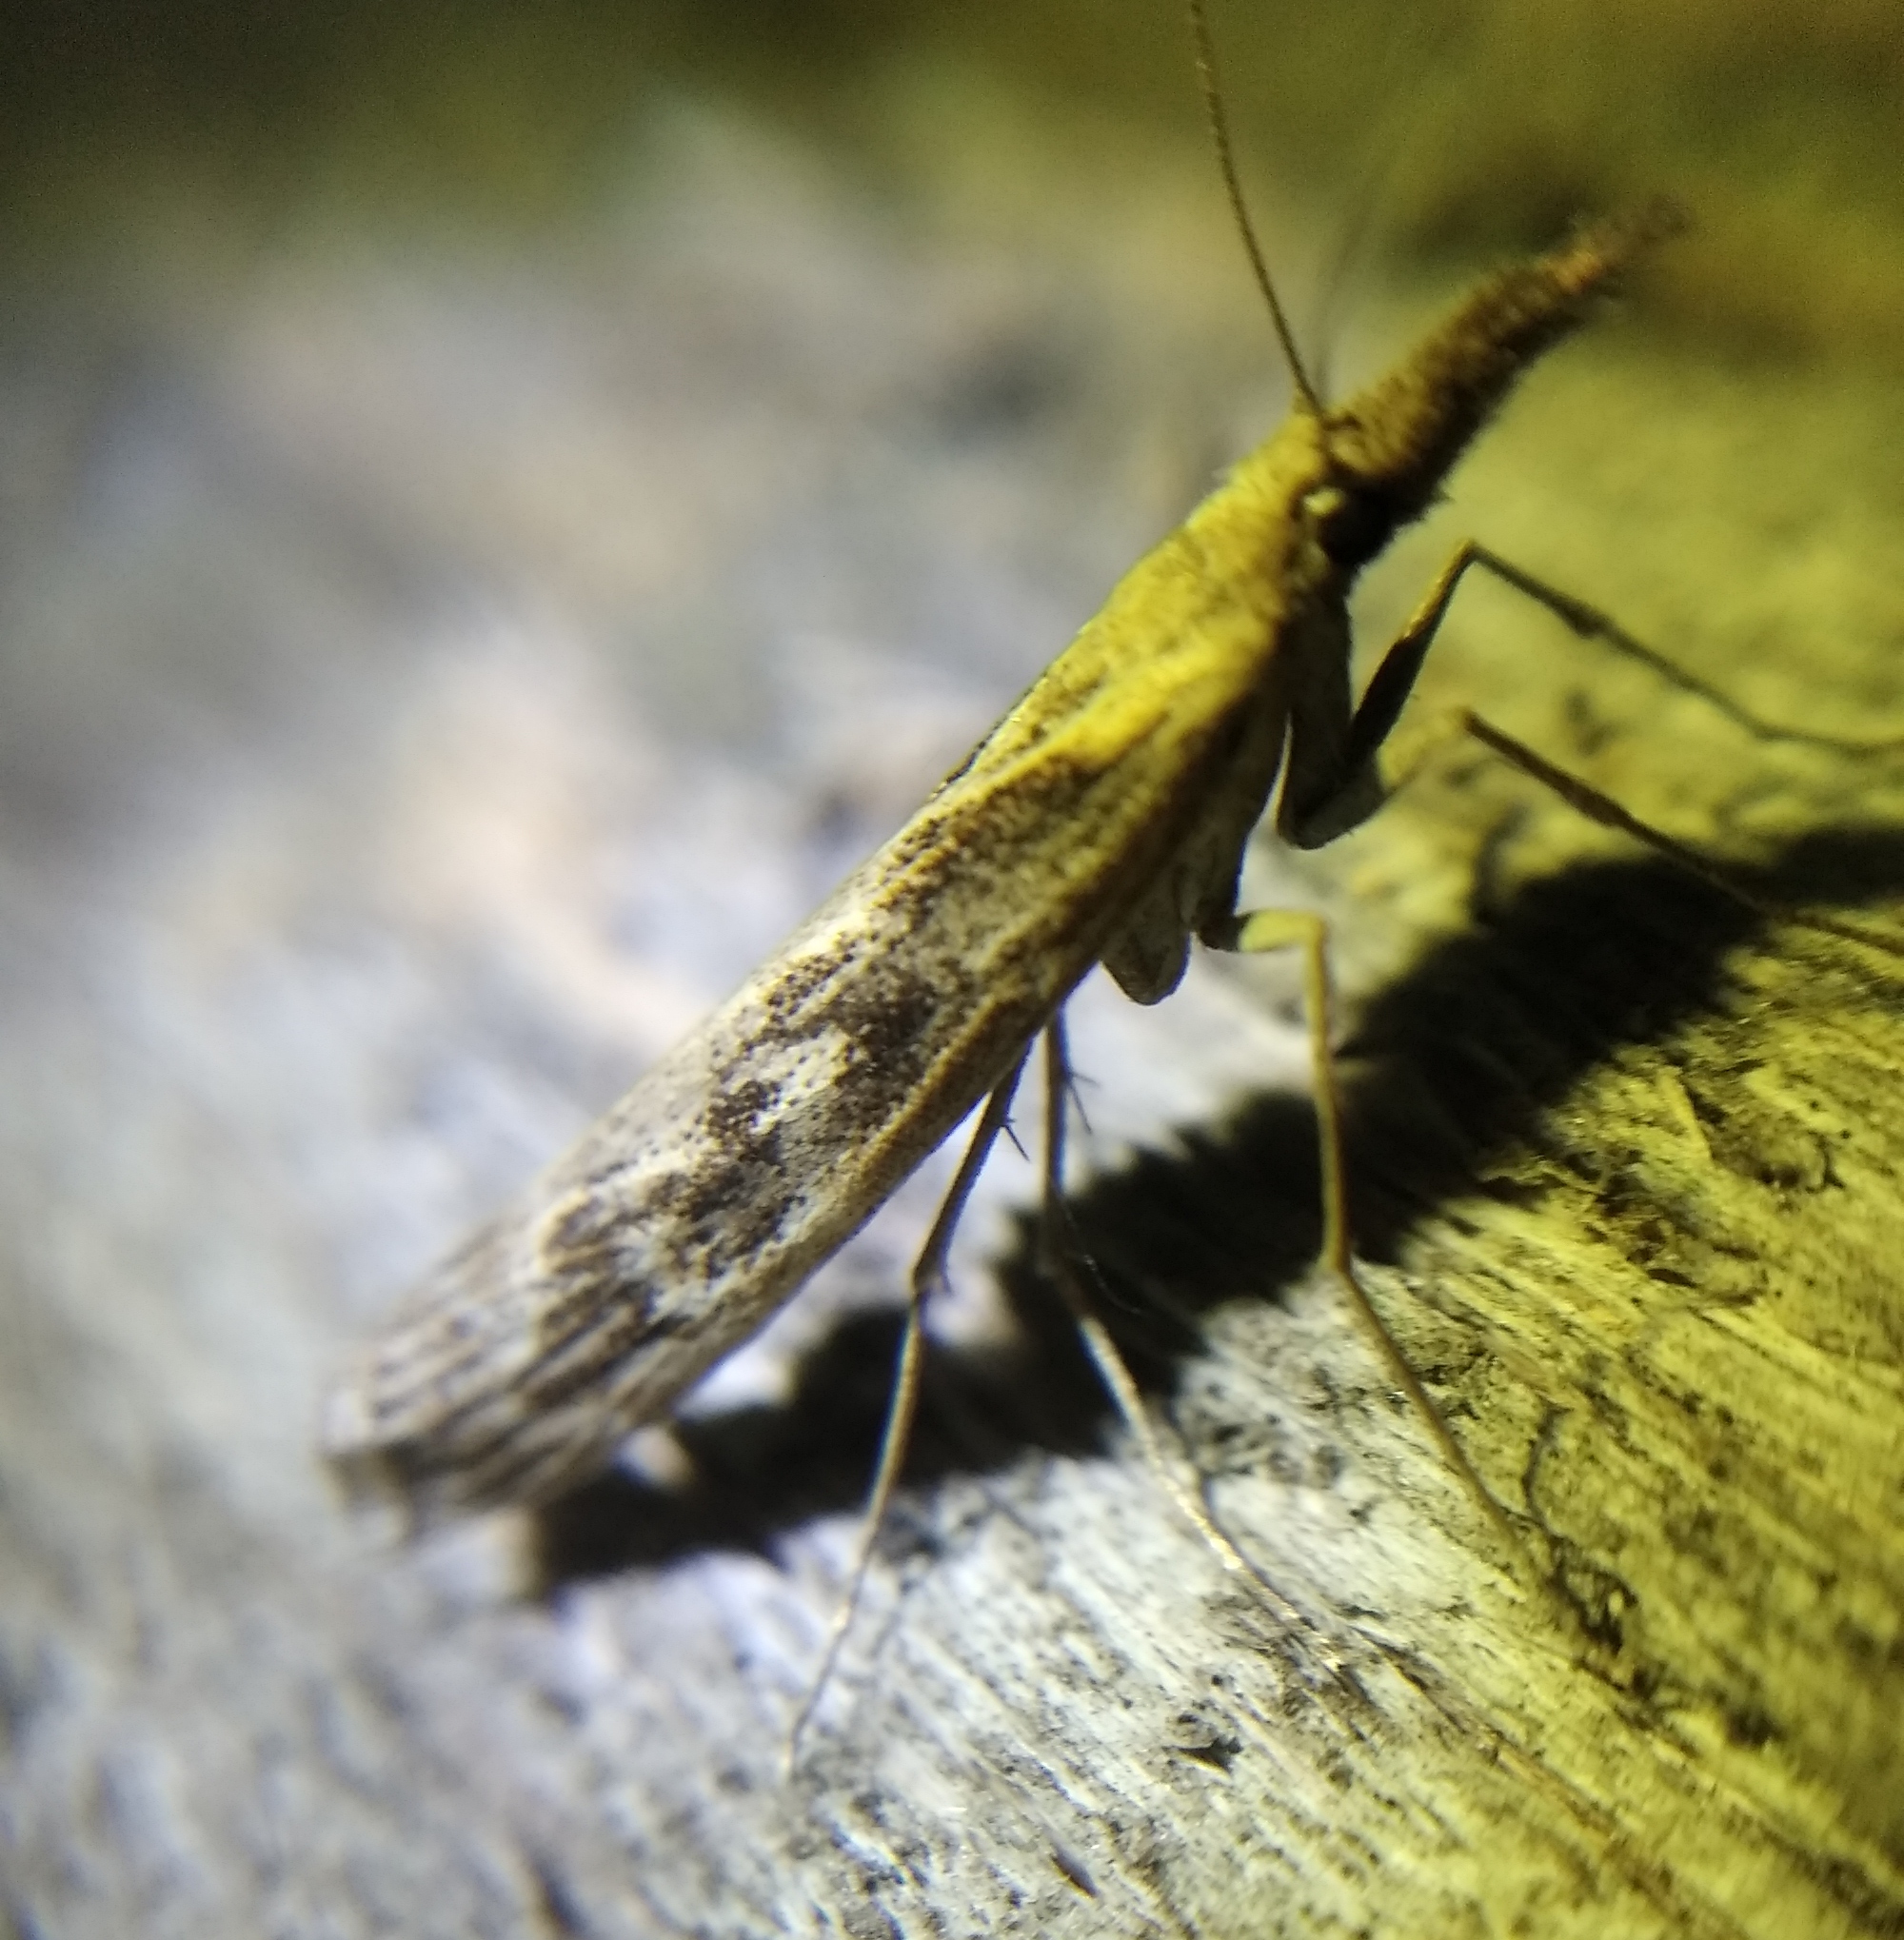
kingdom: Animalia
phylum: Arthropoda
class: Insecta
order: Lepidoptera
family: Crambidae
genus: Pediasia
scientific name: Pediasia matricella
